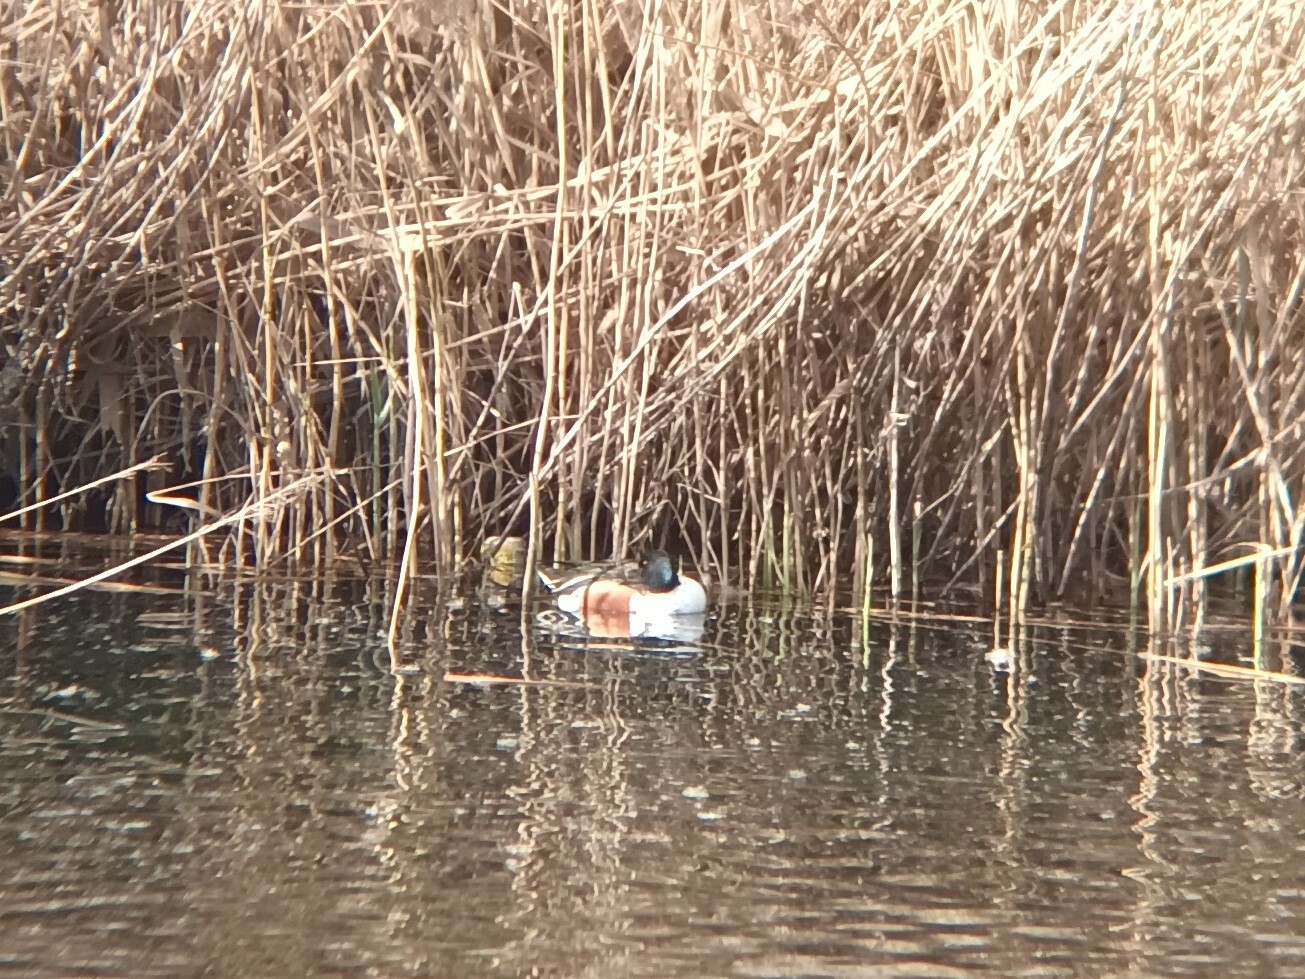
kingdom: Animalia
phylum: Chordata
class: Aves
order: Anseriformes
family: Anatidae
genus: Spatula
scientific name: Spatula clypeata
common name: Northern shoveler
